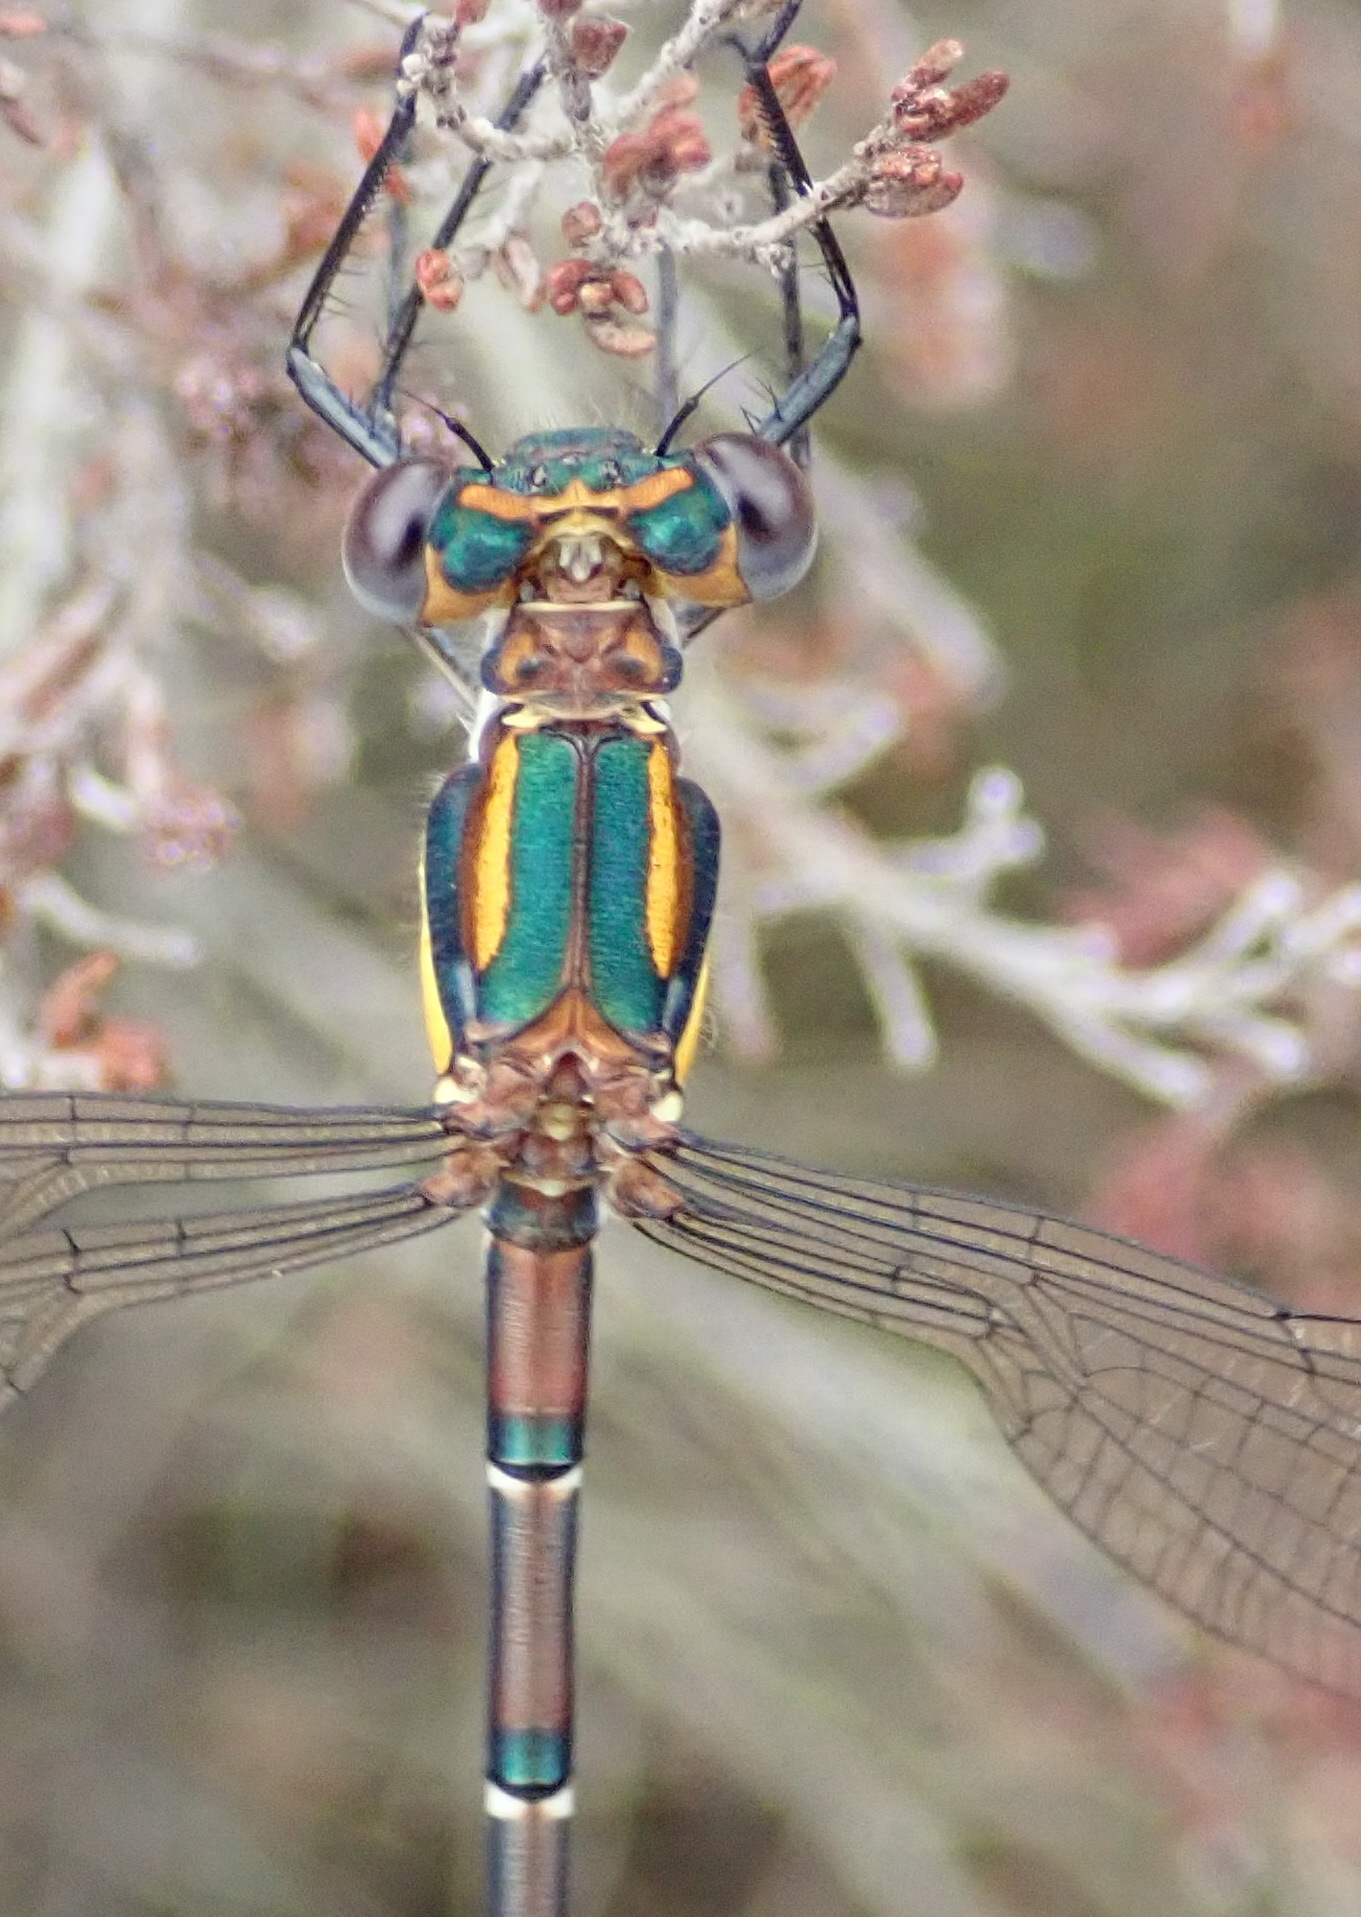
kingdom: Animalia
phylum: Arthropoda
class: Insecta
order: Odonata
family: Synlestidae
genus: Chlorolestes
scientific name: Chlorolestes conspicuus
